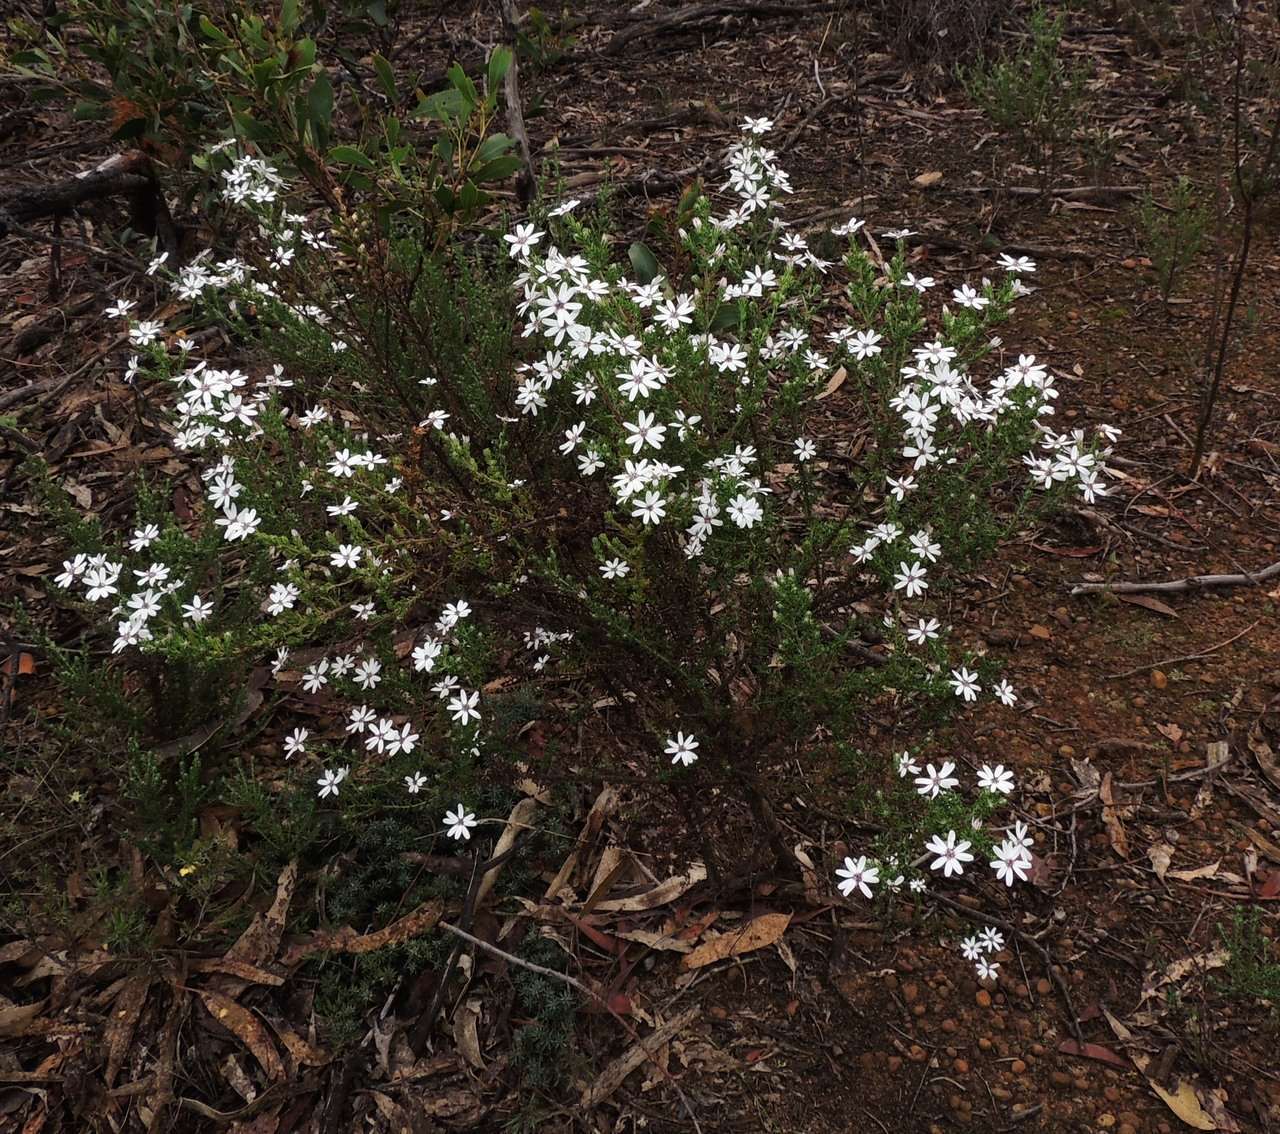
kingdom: Plantae
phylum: Tracheophyta
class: Magnoliopsida
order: Asterales
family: Asteraceae
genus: Olearia
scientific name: Olearia minor
